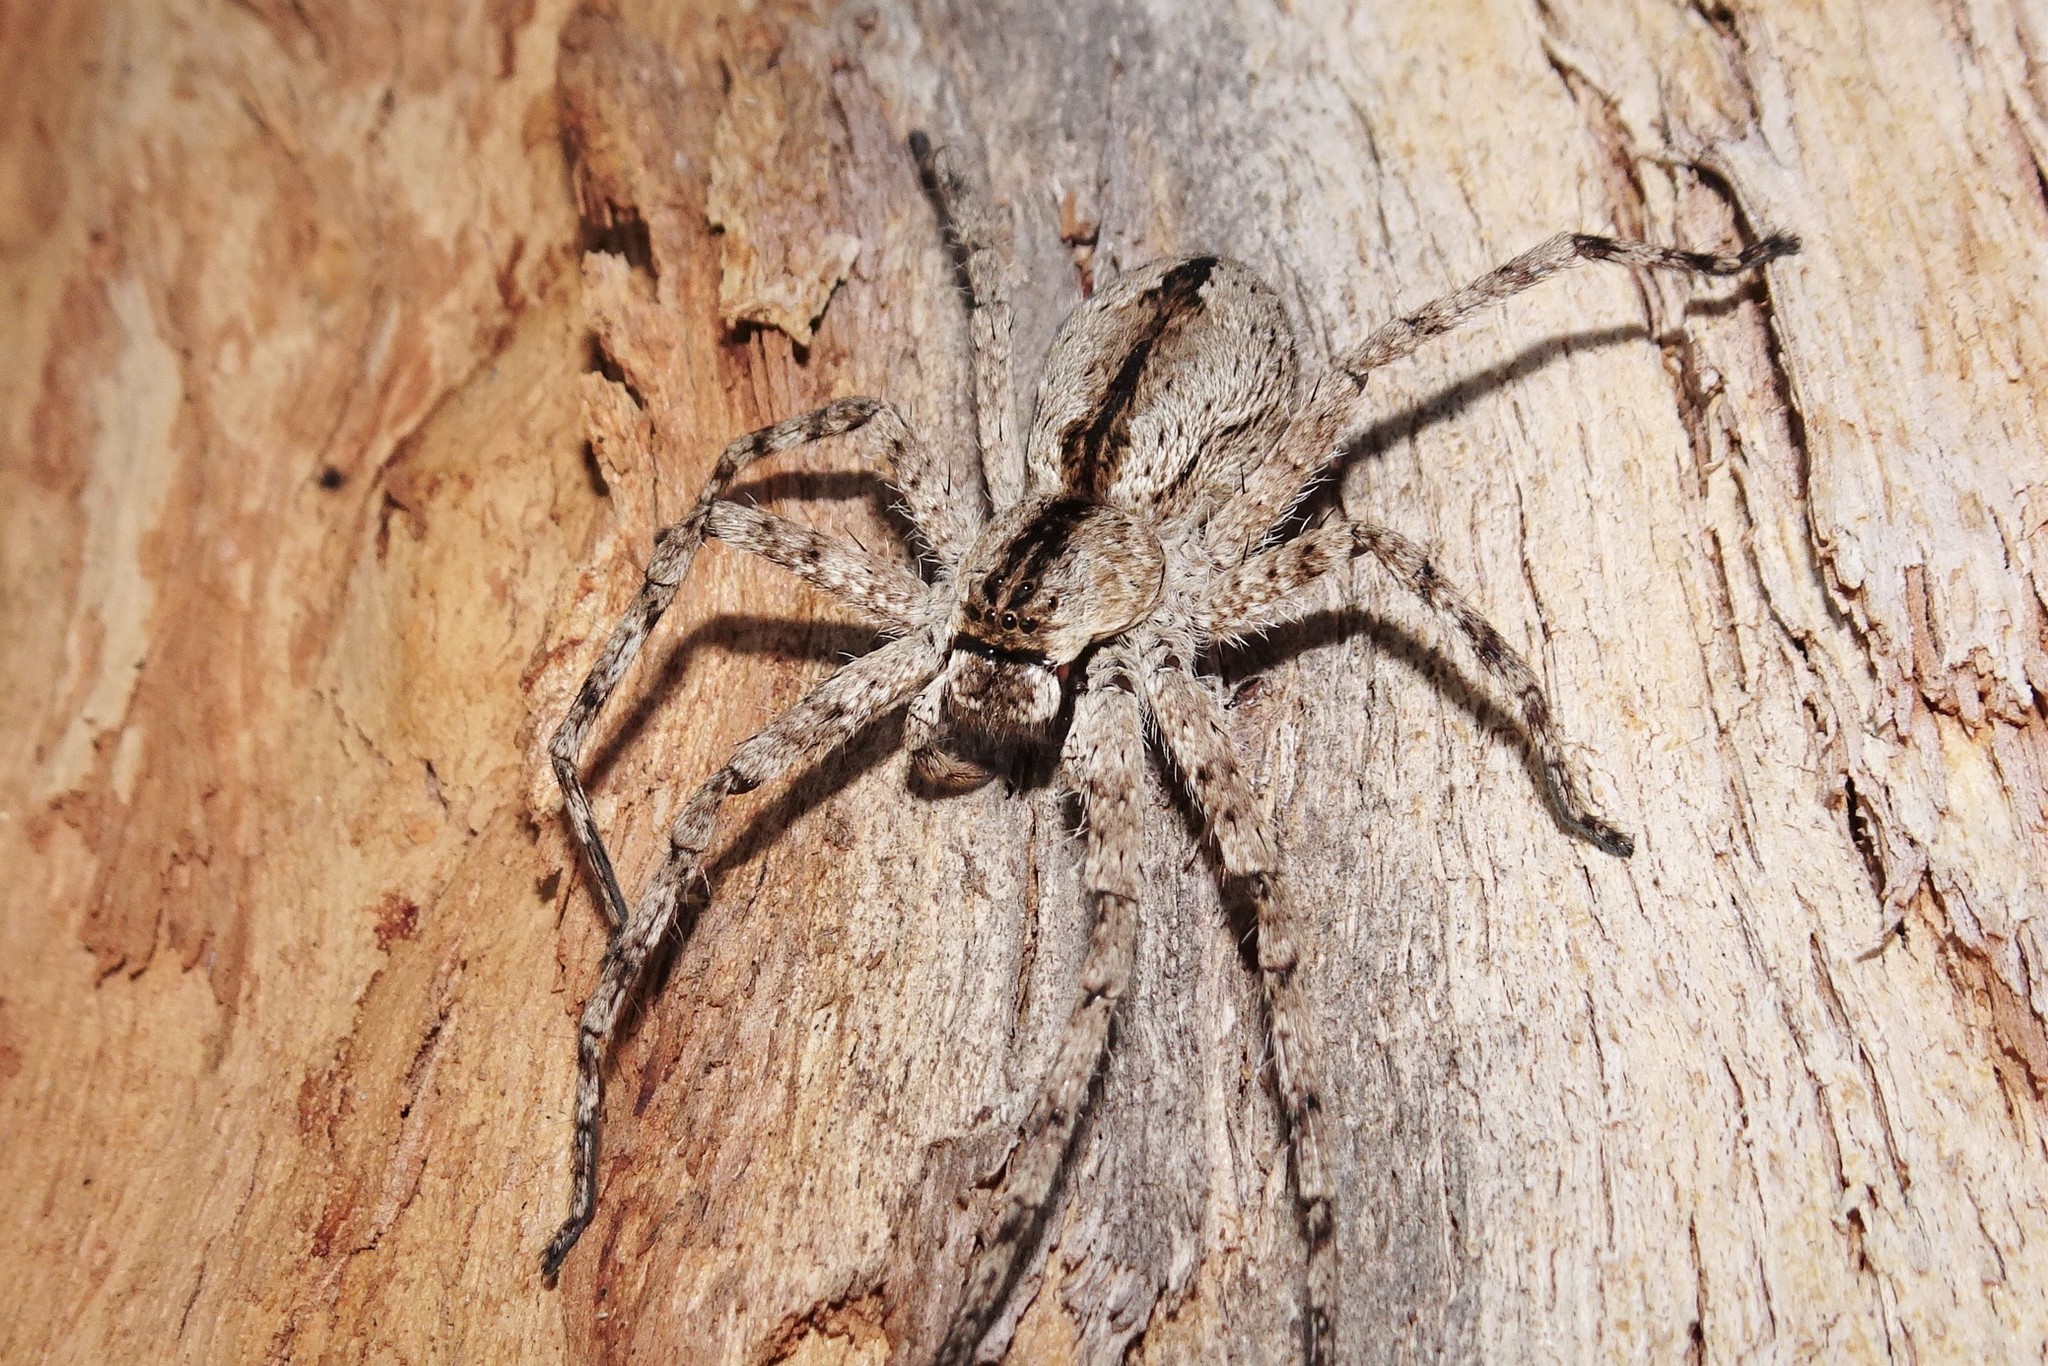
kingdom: Animalia
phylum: Arthropoda
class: Arachnida
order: Araneae
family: Sparassidae
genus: Pediana
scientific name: Pediana regina
